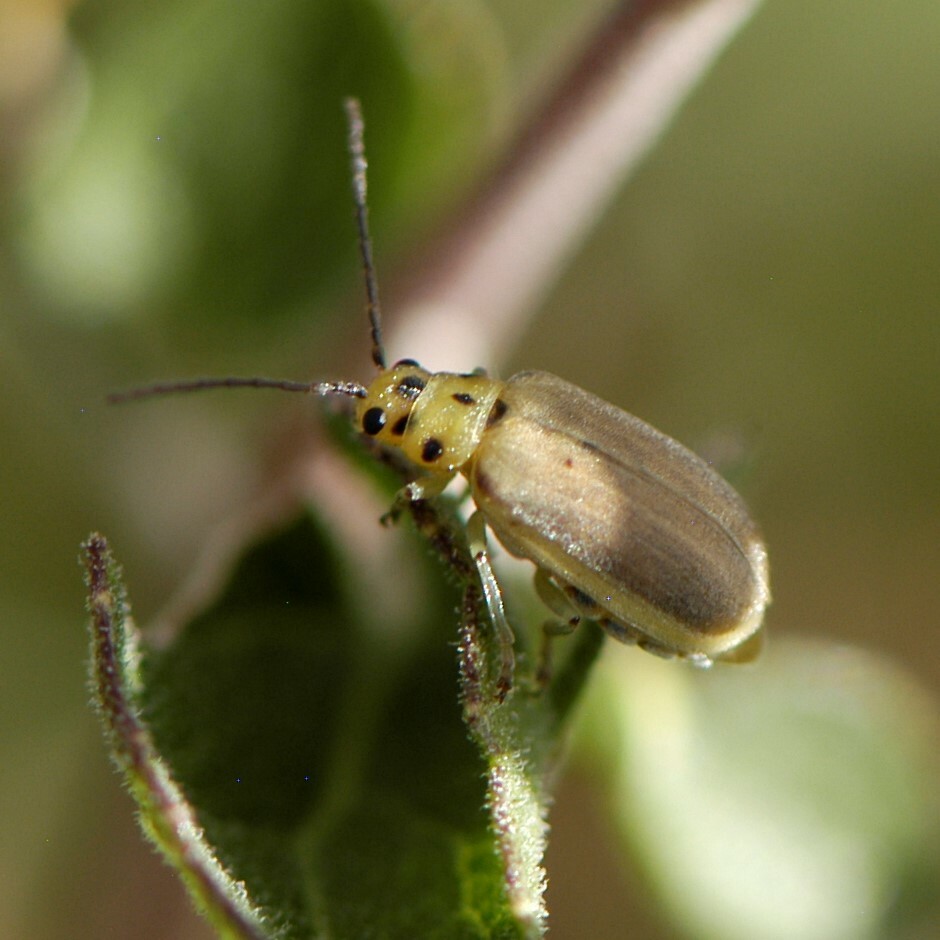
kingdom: Animalia
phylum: Arthropoda
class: Insecta
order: Coleoptera
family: Chrysomelidae
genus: Trirhabda
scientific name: Trirhabda schwarzi
